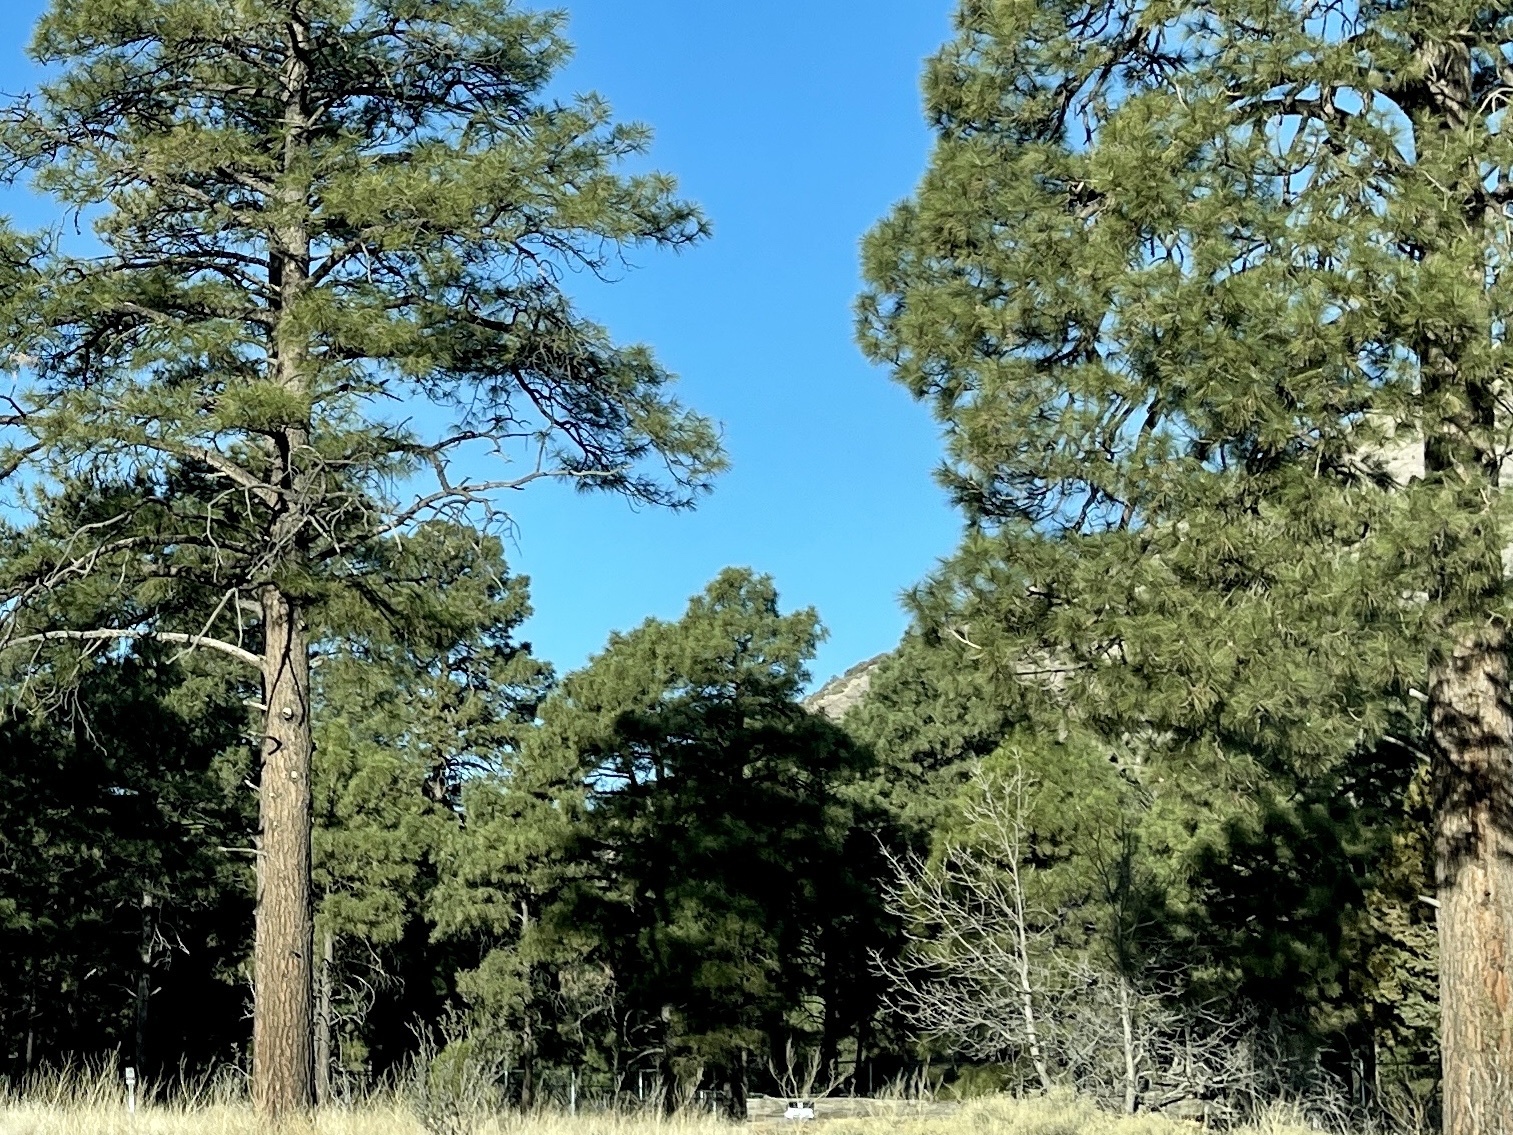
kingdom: Plantae
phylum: Tracheophyta
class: Pinopsida
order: Pinales
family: Pinaceae
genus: Pinus
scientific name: Pinus ponderosa
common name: Western yellow-pine
